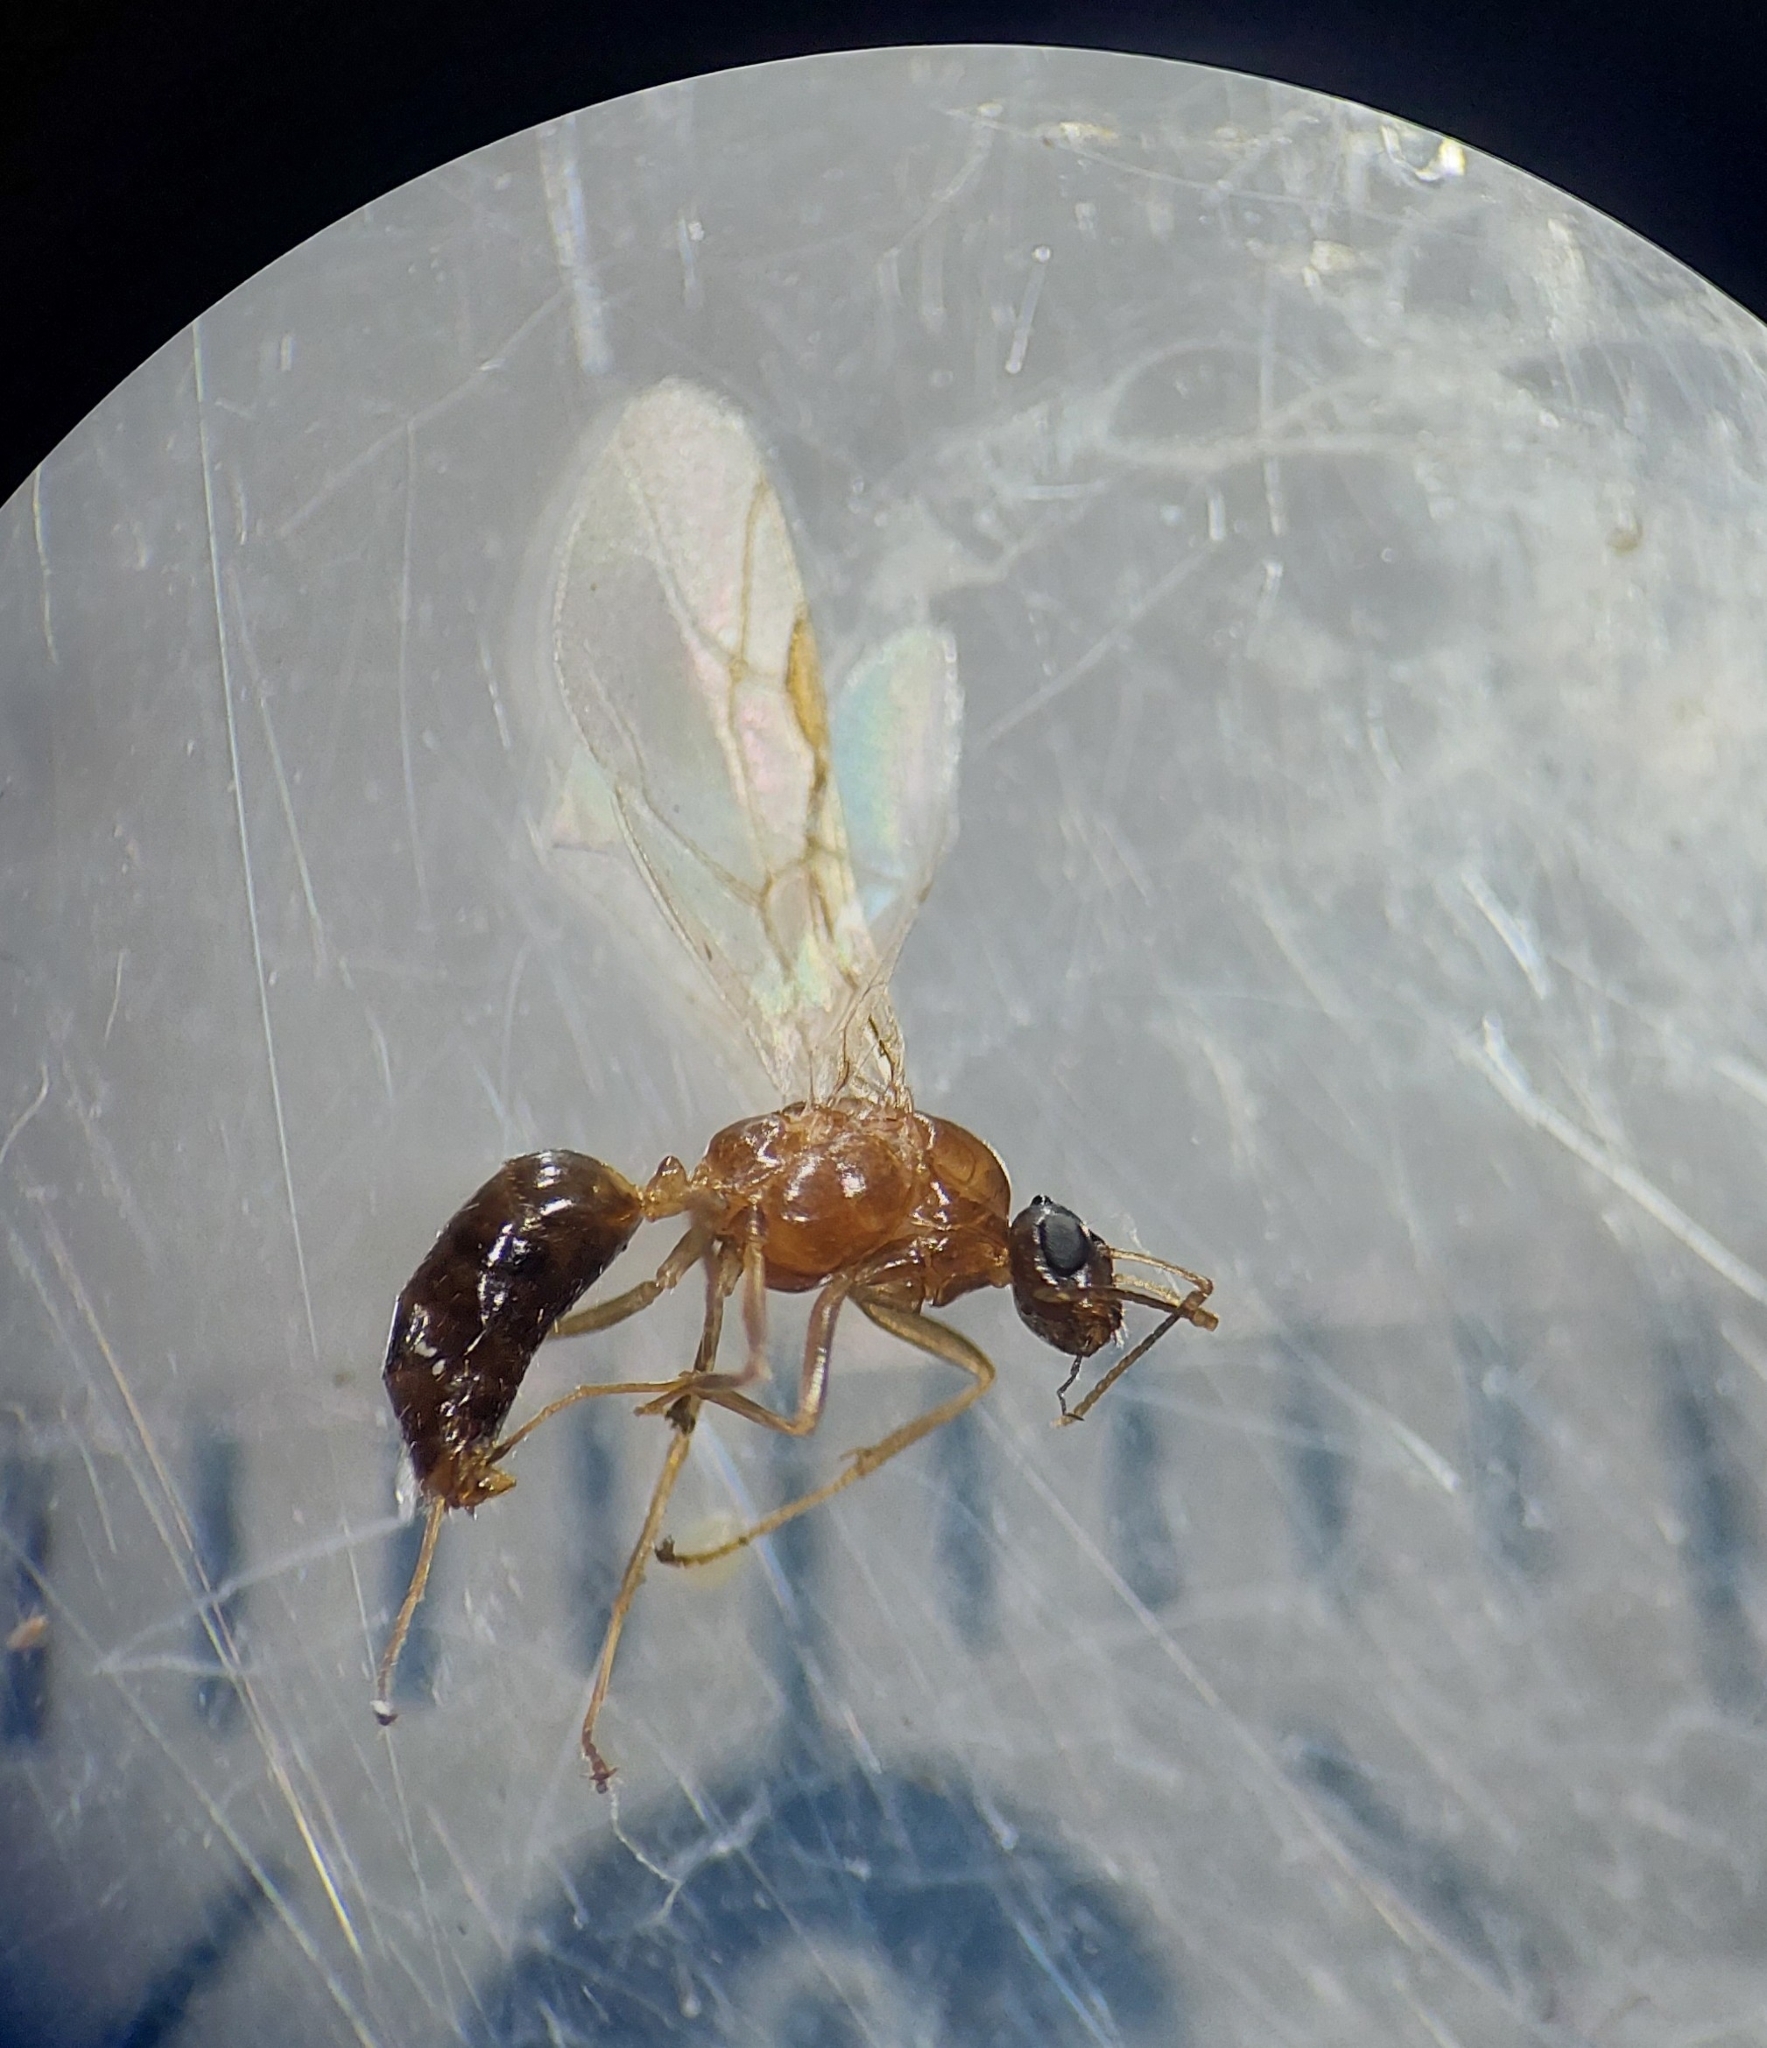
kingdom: Animalia
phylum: Arthropoda
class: Insecta
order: Hymenoptera
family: Formicidae
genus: Camponotus
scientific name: Camponotus truncatus
